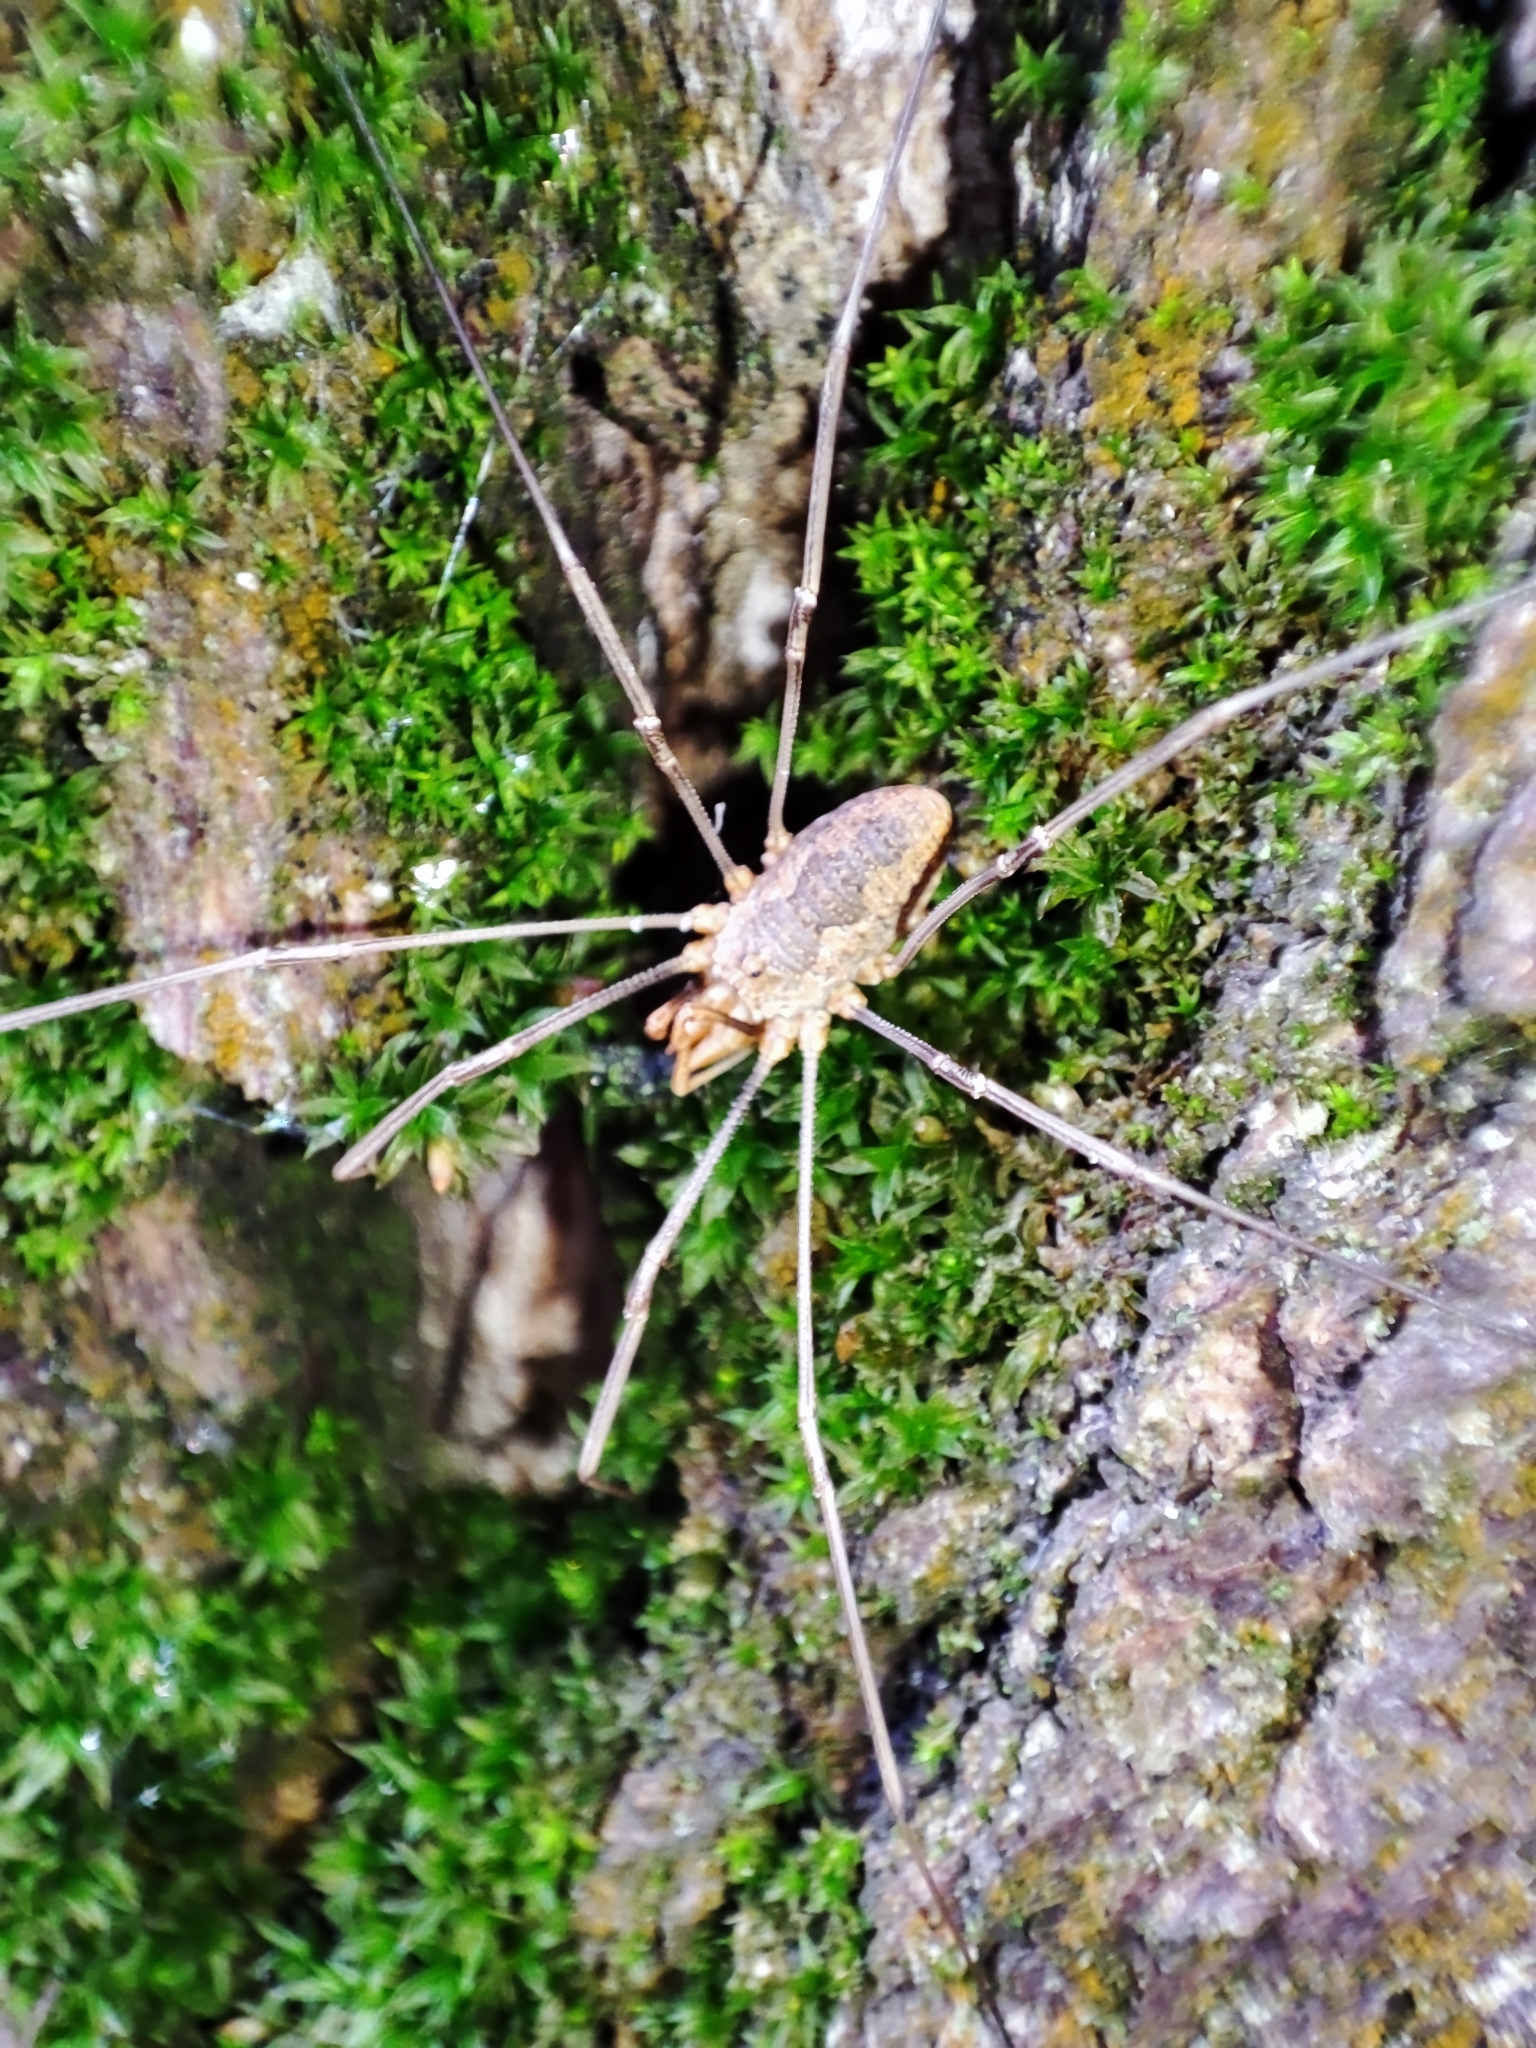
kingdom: Animalia
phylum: Arthropoda
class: Arachnida
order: Opiliones
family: Phalangiidae
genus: Phalangium
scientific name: Phalangium opilio
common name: Daddy longleg
